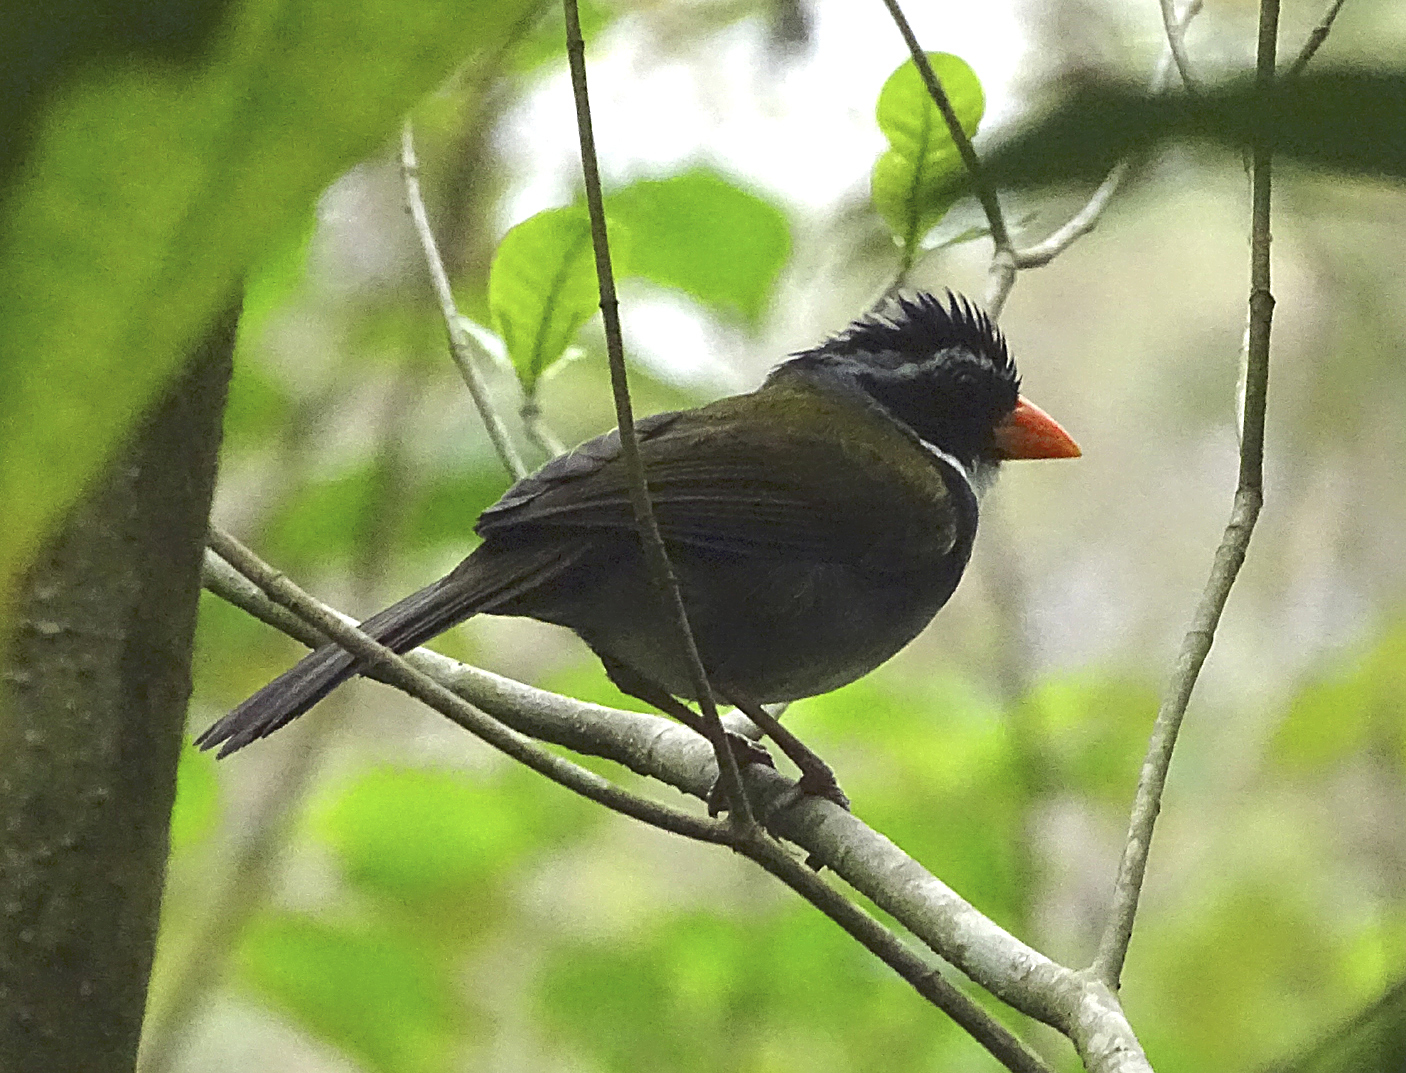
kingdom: Animalia
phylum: Chordata
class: Aves
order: Passeriformes
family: Passerellidae
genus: Arremon
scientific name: Arremon aurantiirostris
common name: Orange-billed sparrow
